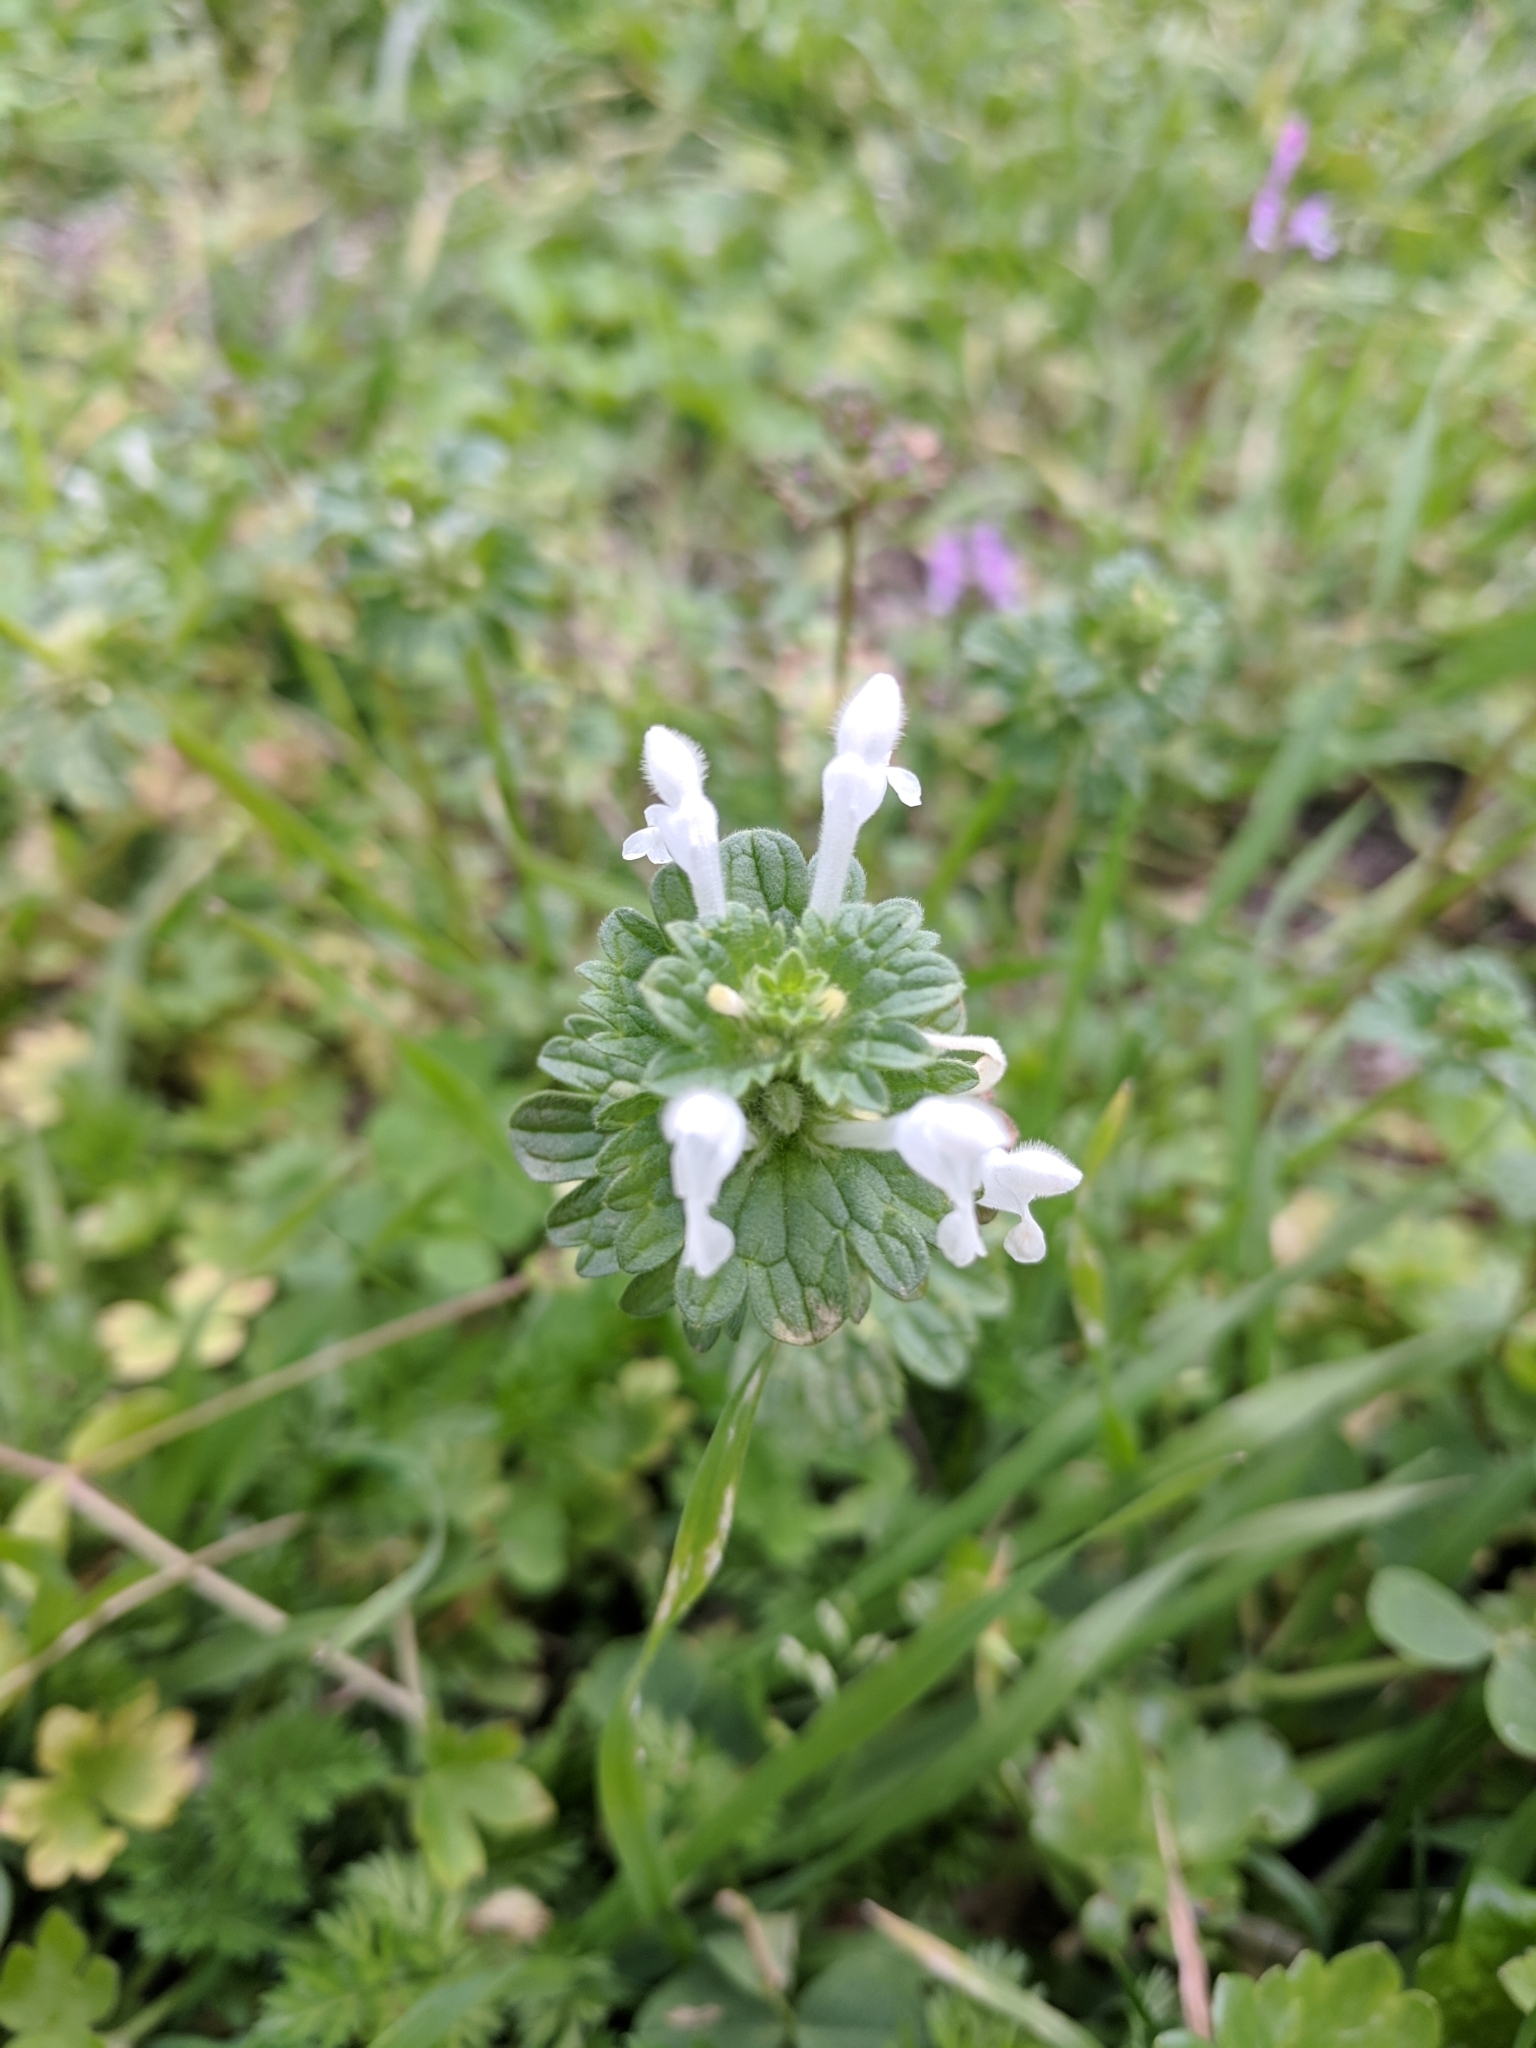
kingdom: Plantae
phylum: Tracheophyta
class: Magnoliopsida
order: Lamiales
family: Lamiaceae
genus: Lamium
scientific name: Lamium amplexicaule
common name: Henbit dead-nettle
